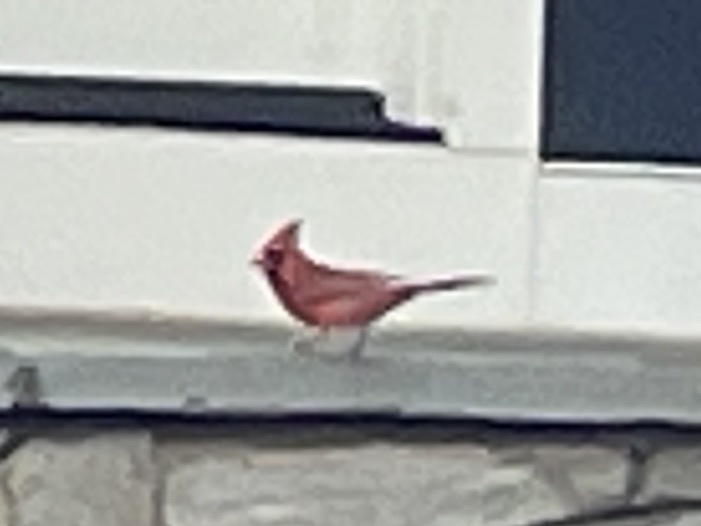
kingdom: Animalia
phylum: Chordata
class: Aves
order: Passeriformes
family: Cardinalidae
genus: Cardinalis
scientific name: Cardinalis cardinalis
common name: Northern cardinal
